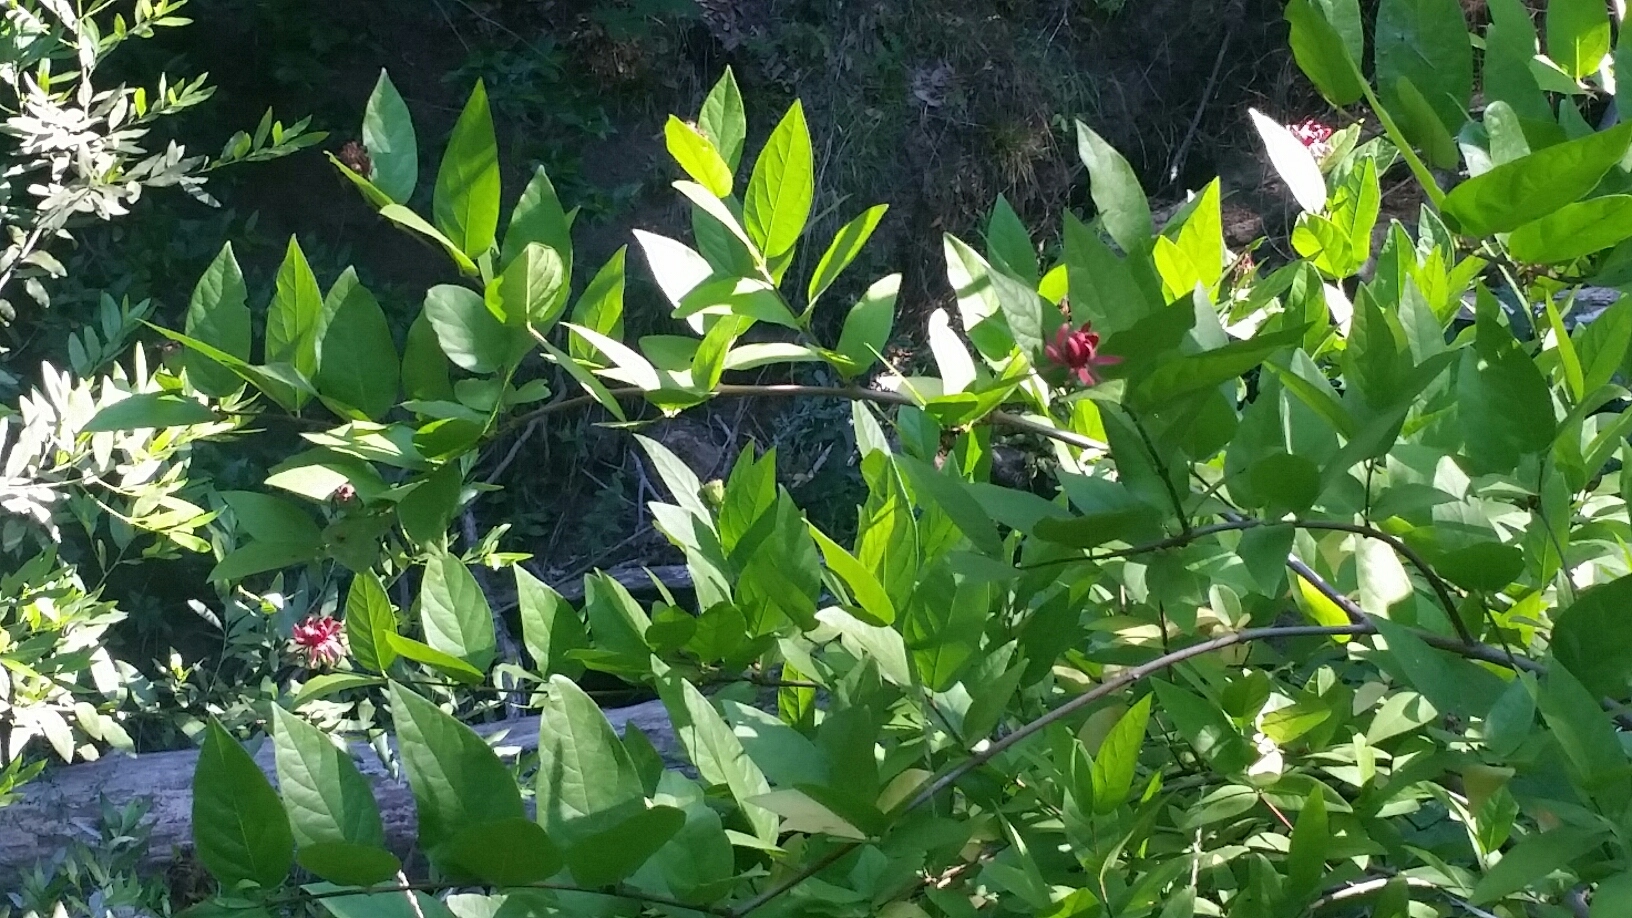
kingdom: Plantae
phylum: Tracheophyta
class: Magnoliopsida
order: Laurales
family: Calycanthaceae
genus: Calycanthus
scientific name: Calycanthus occidentalis
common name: California spicebush
